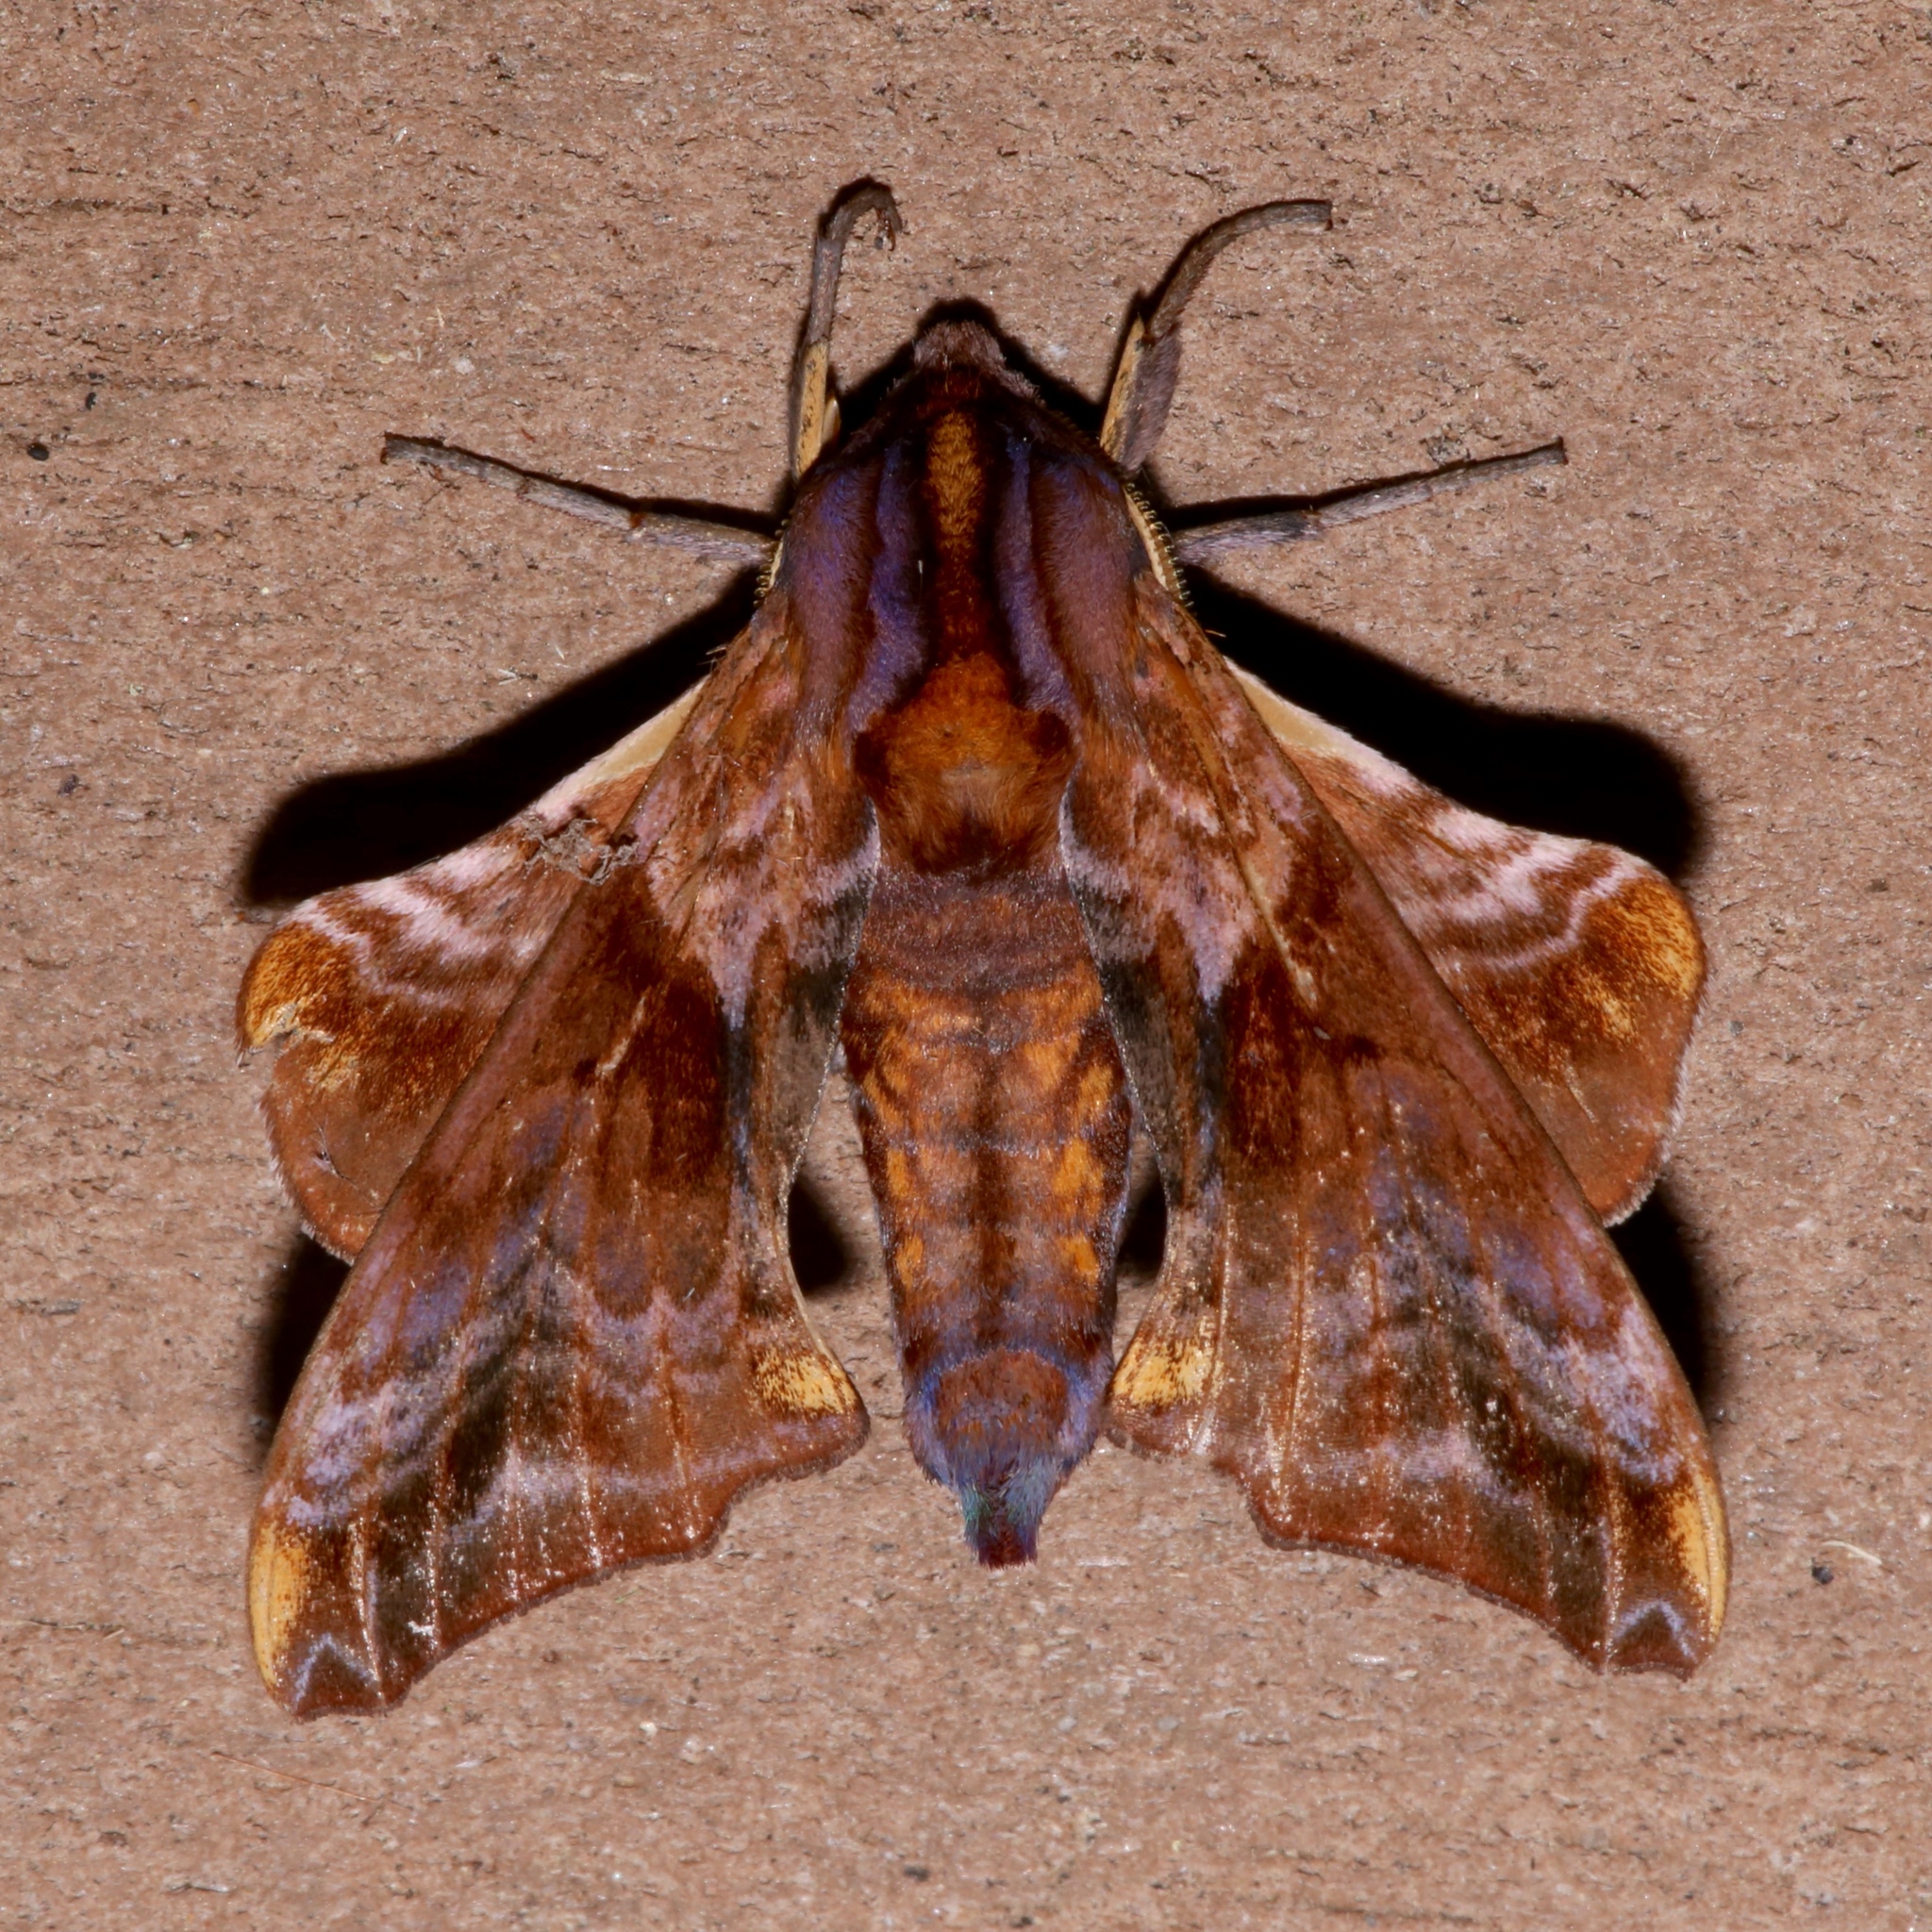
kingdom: Animalia
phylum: Arthropoda
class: Insecta
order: Lepidoptera
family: Sphingidae
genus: Paonias
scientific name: Paonias myops
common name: Small-eyed sphinx
